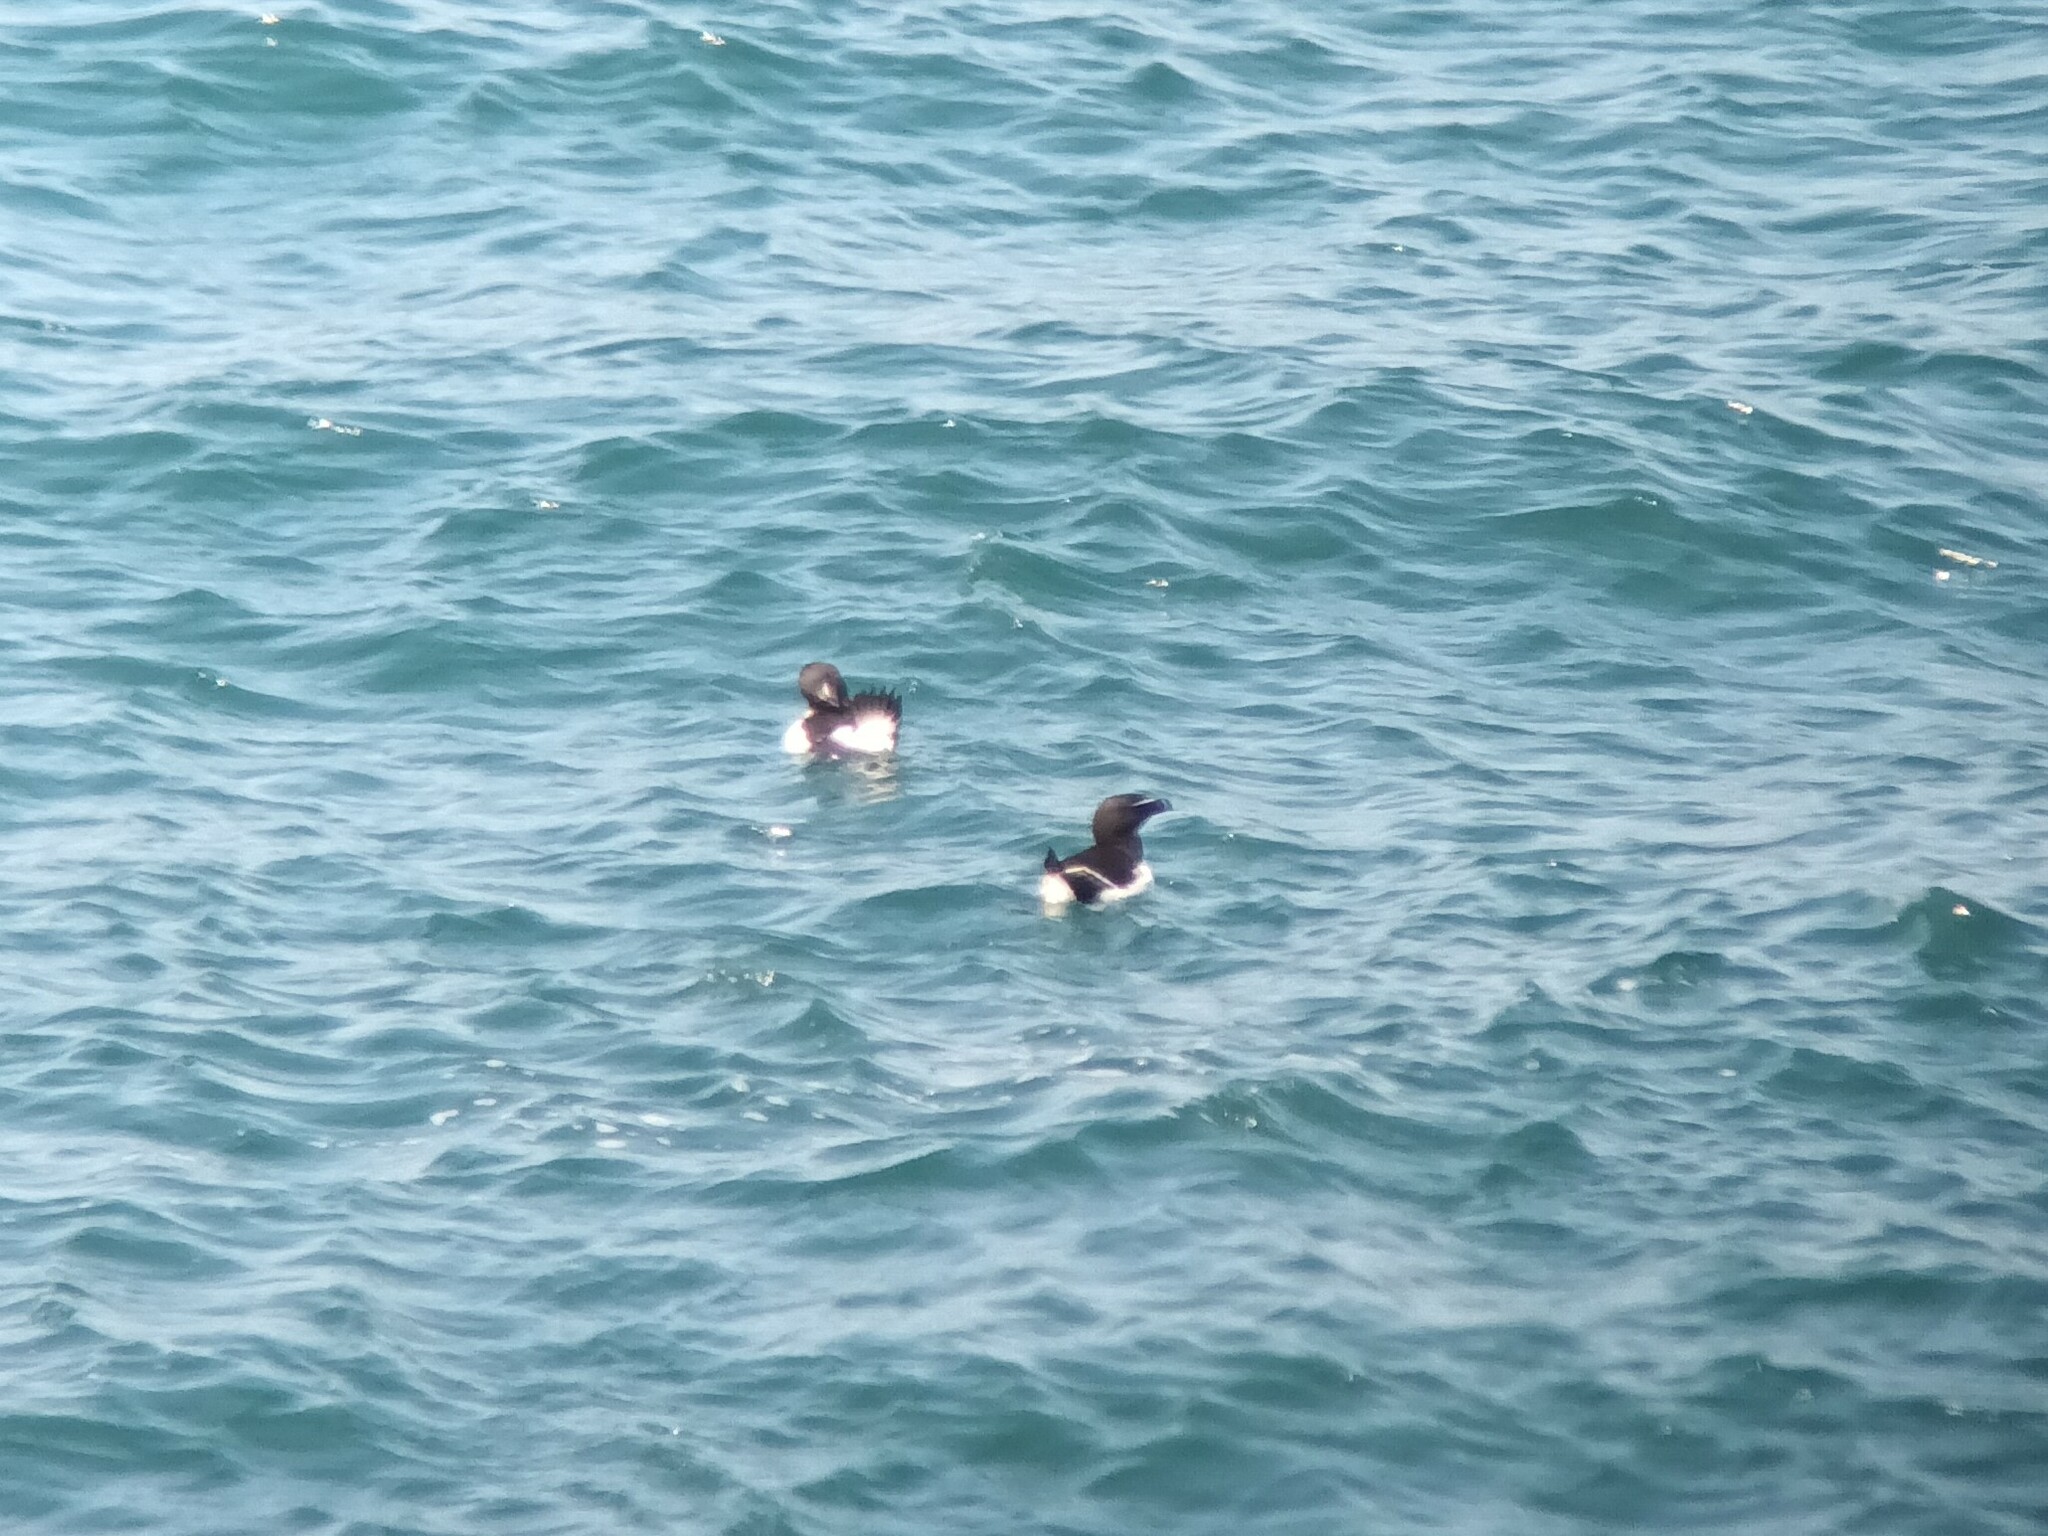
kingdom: Animalia
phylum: Chordata
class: Aves
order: Charadriiformes
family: Alcidae
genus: Alca
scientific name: Alca torda
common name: Razorbill
